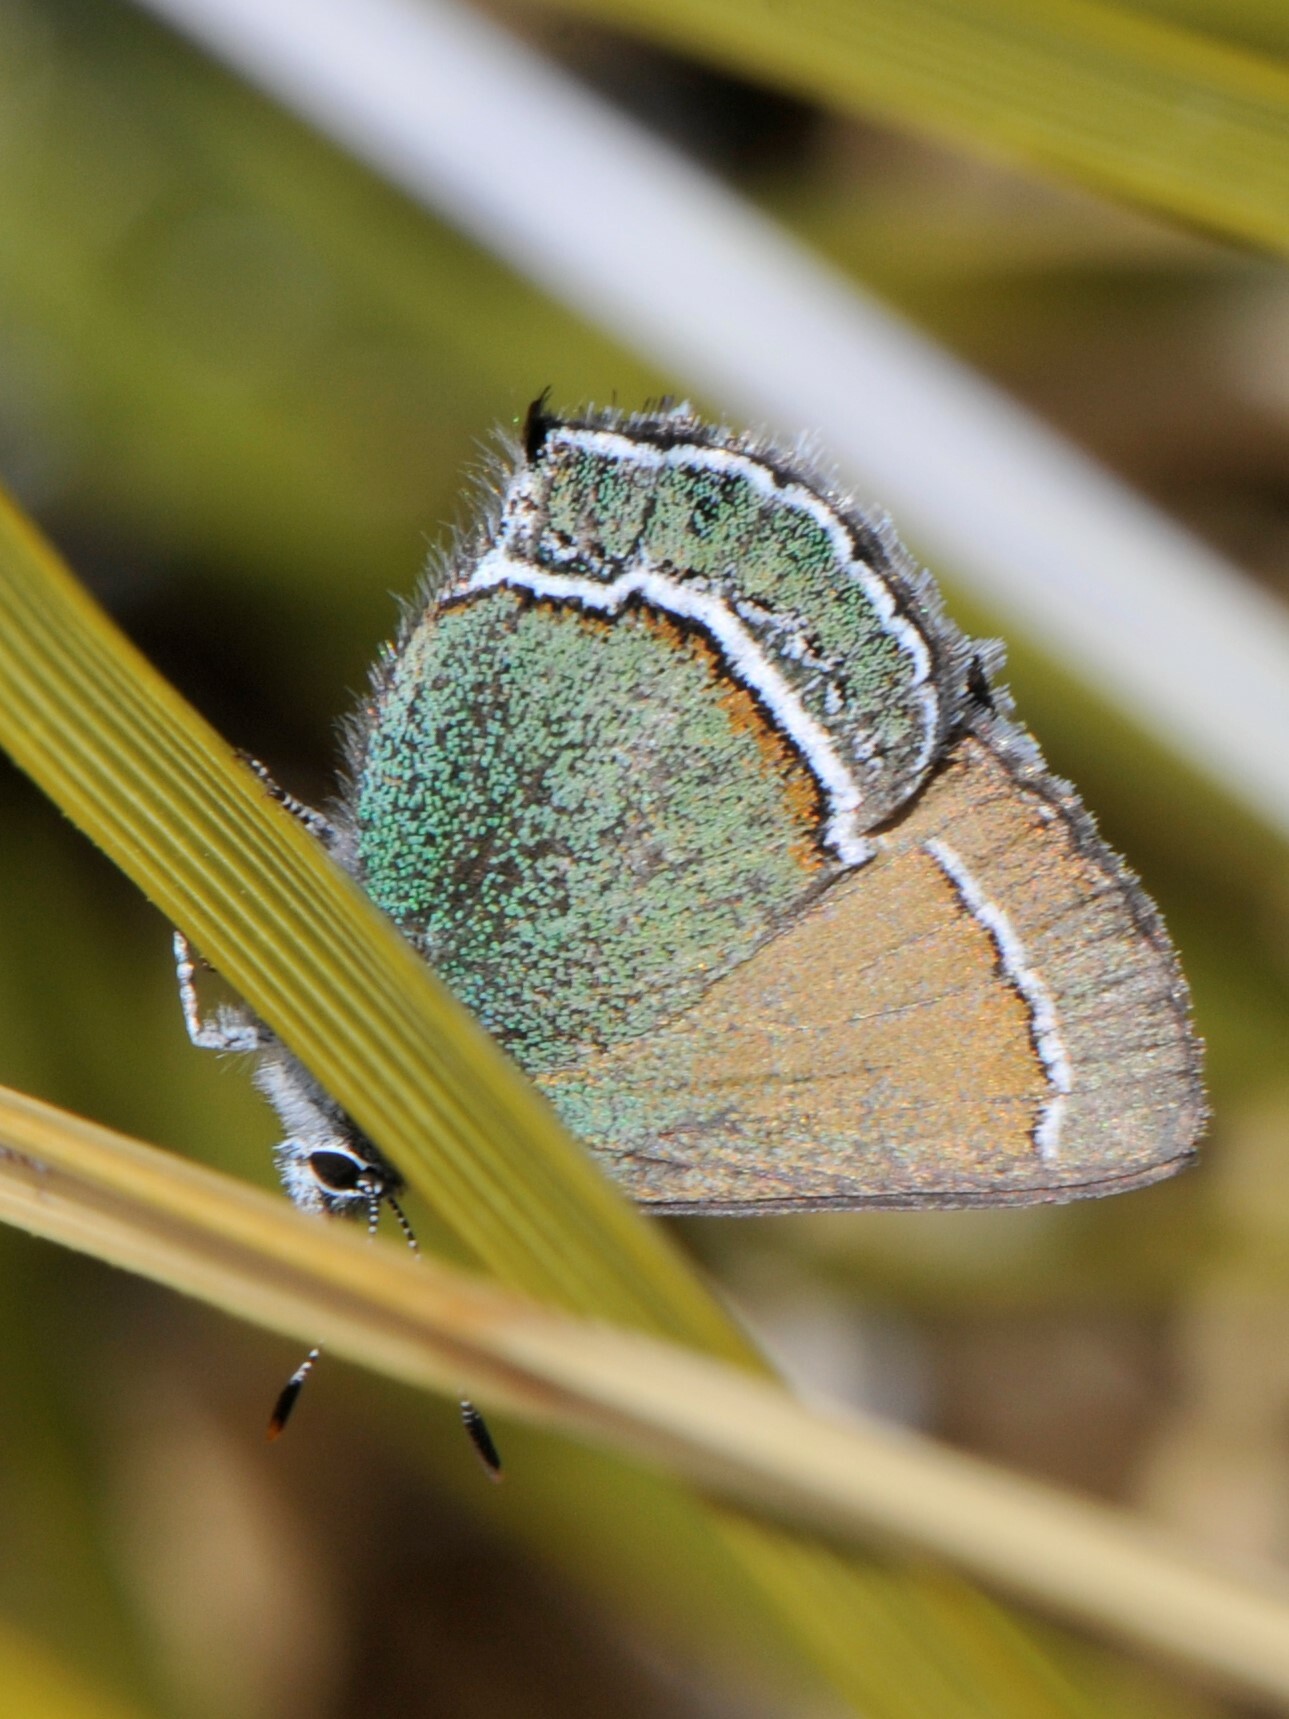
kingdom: Animalia
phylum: Arthropoda
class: Insecta
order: Lepidoptera
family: Lycaenidae
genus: Sandia
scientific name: Sandia mcfarlandi
